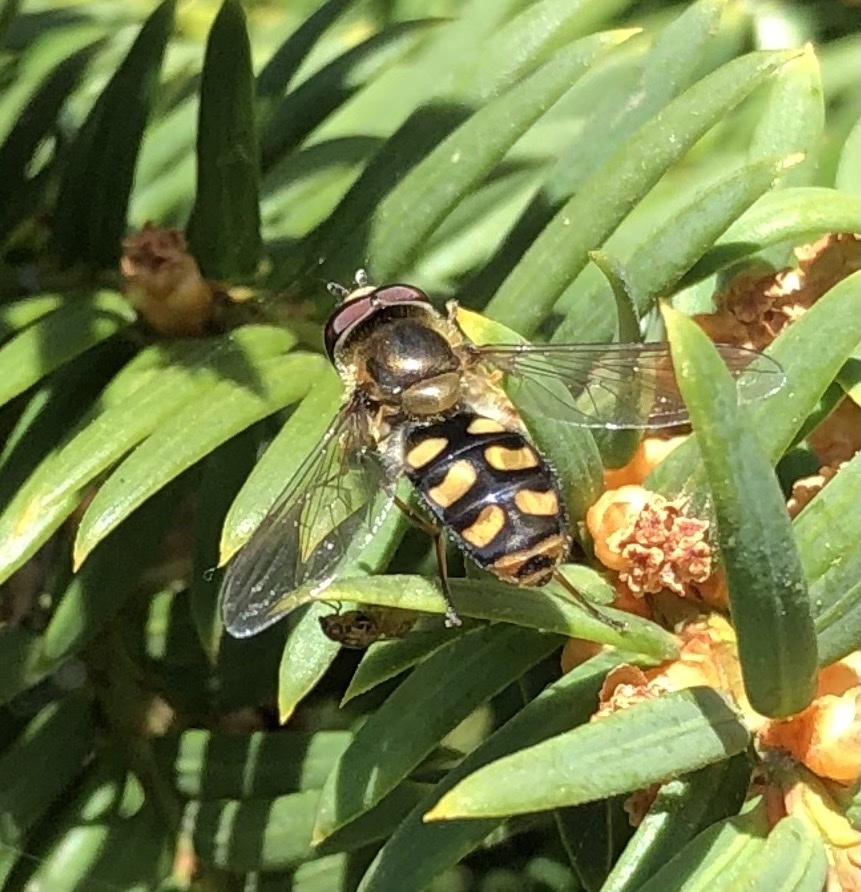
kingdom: Animalia
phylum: Arthropoda
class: Insecta
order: Diptera
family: Syrphidae
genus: Eupeodes
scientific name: Eupeodes
